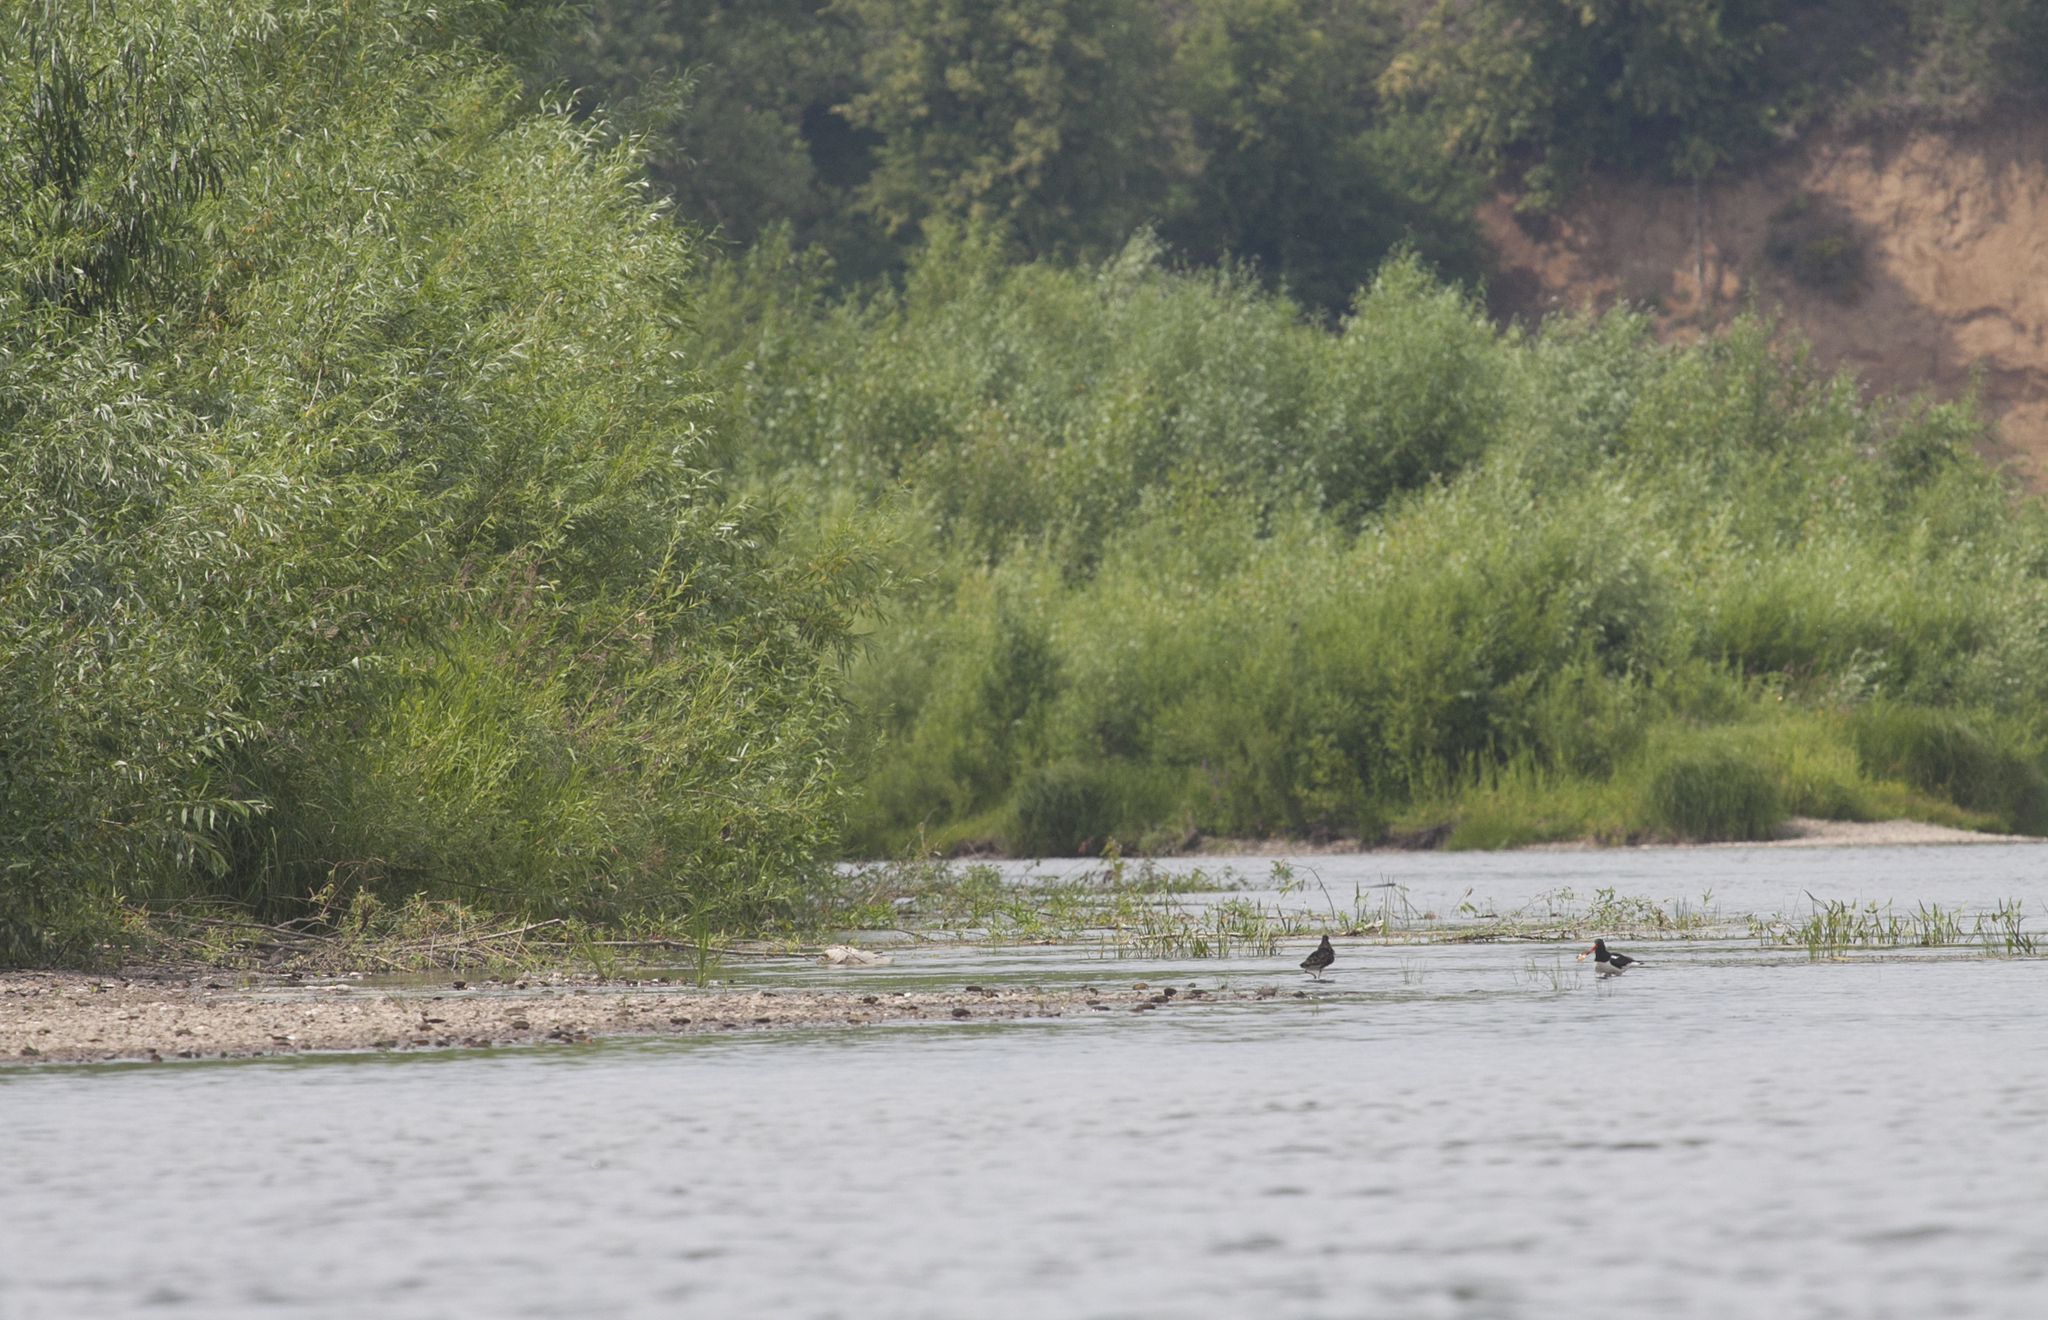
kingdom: Animalia
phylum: Chordata
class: Aves
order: Charadriiformes
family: Haematopodidae
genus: Haematopus
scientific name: Haematopus ostralegus
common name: Eurasian oystercatcher
